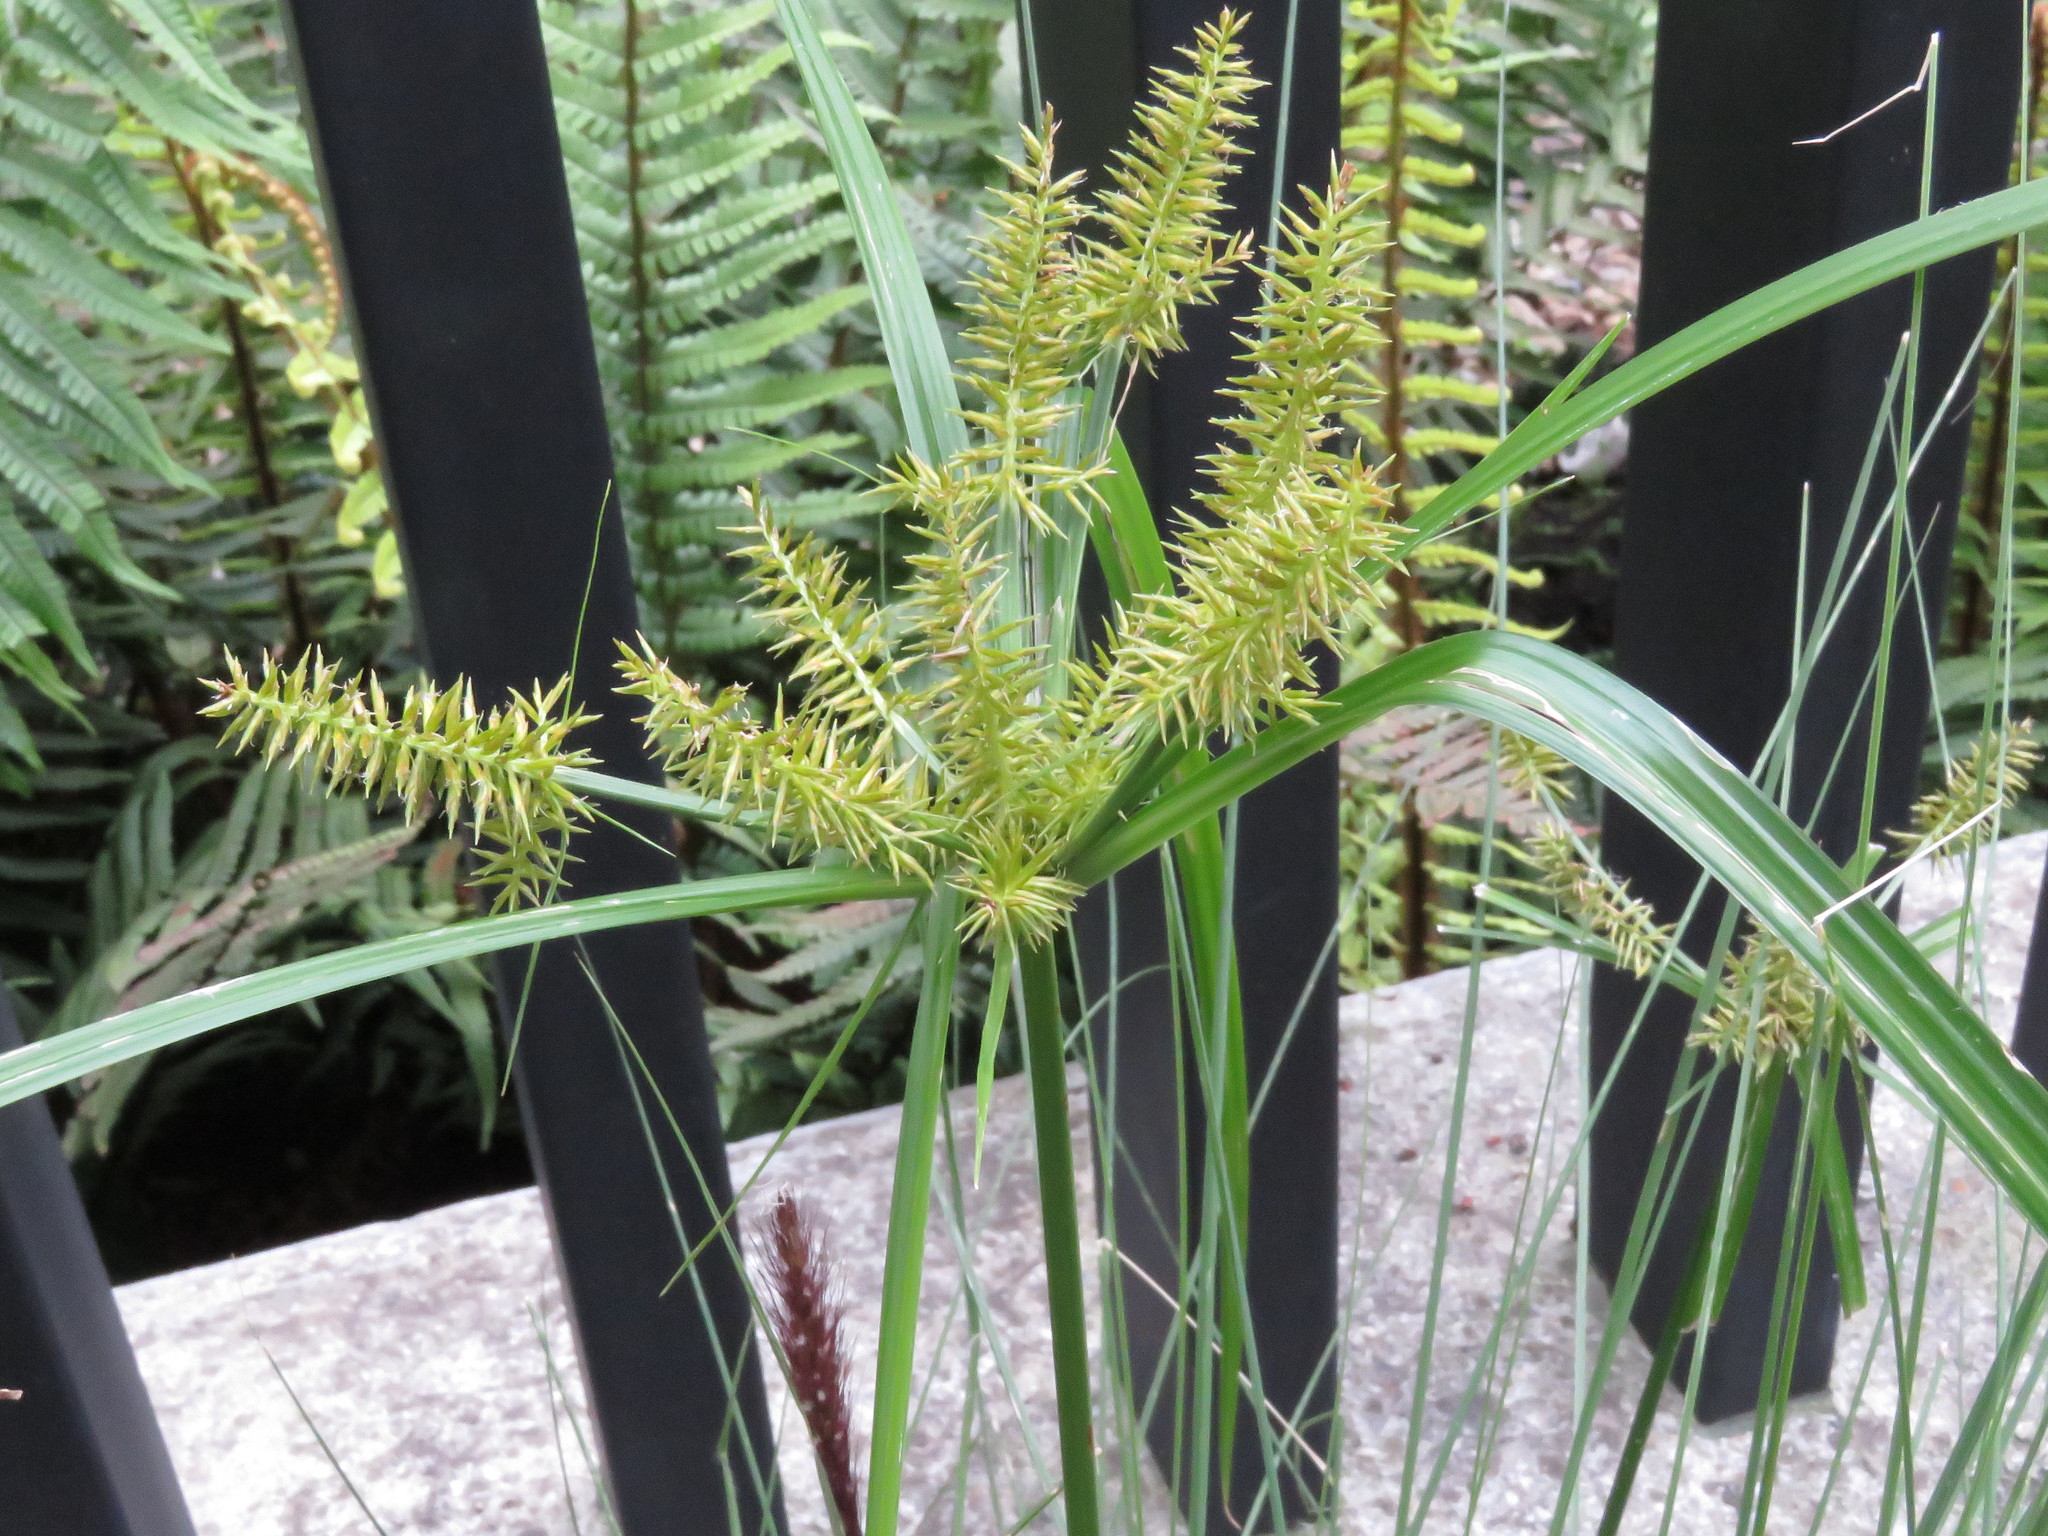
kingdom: Plantae
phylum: Tracheophyta
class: Liliopsida
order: Poales
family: Cyperaceae
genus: Cyperus
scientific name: Cyperus hermaphroditus
